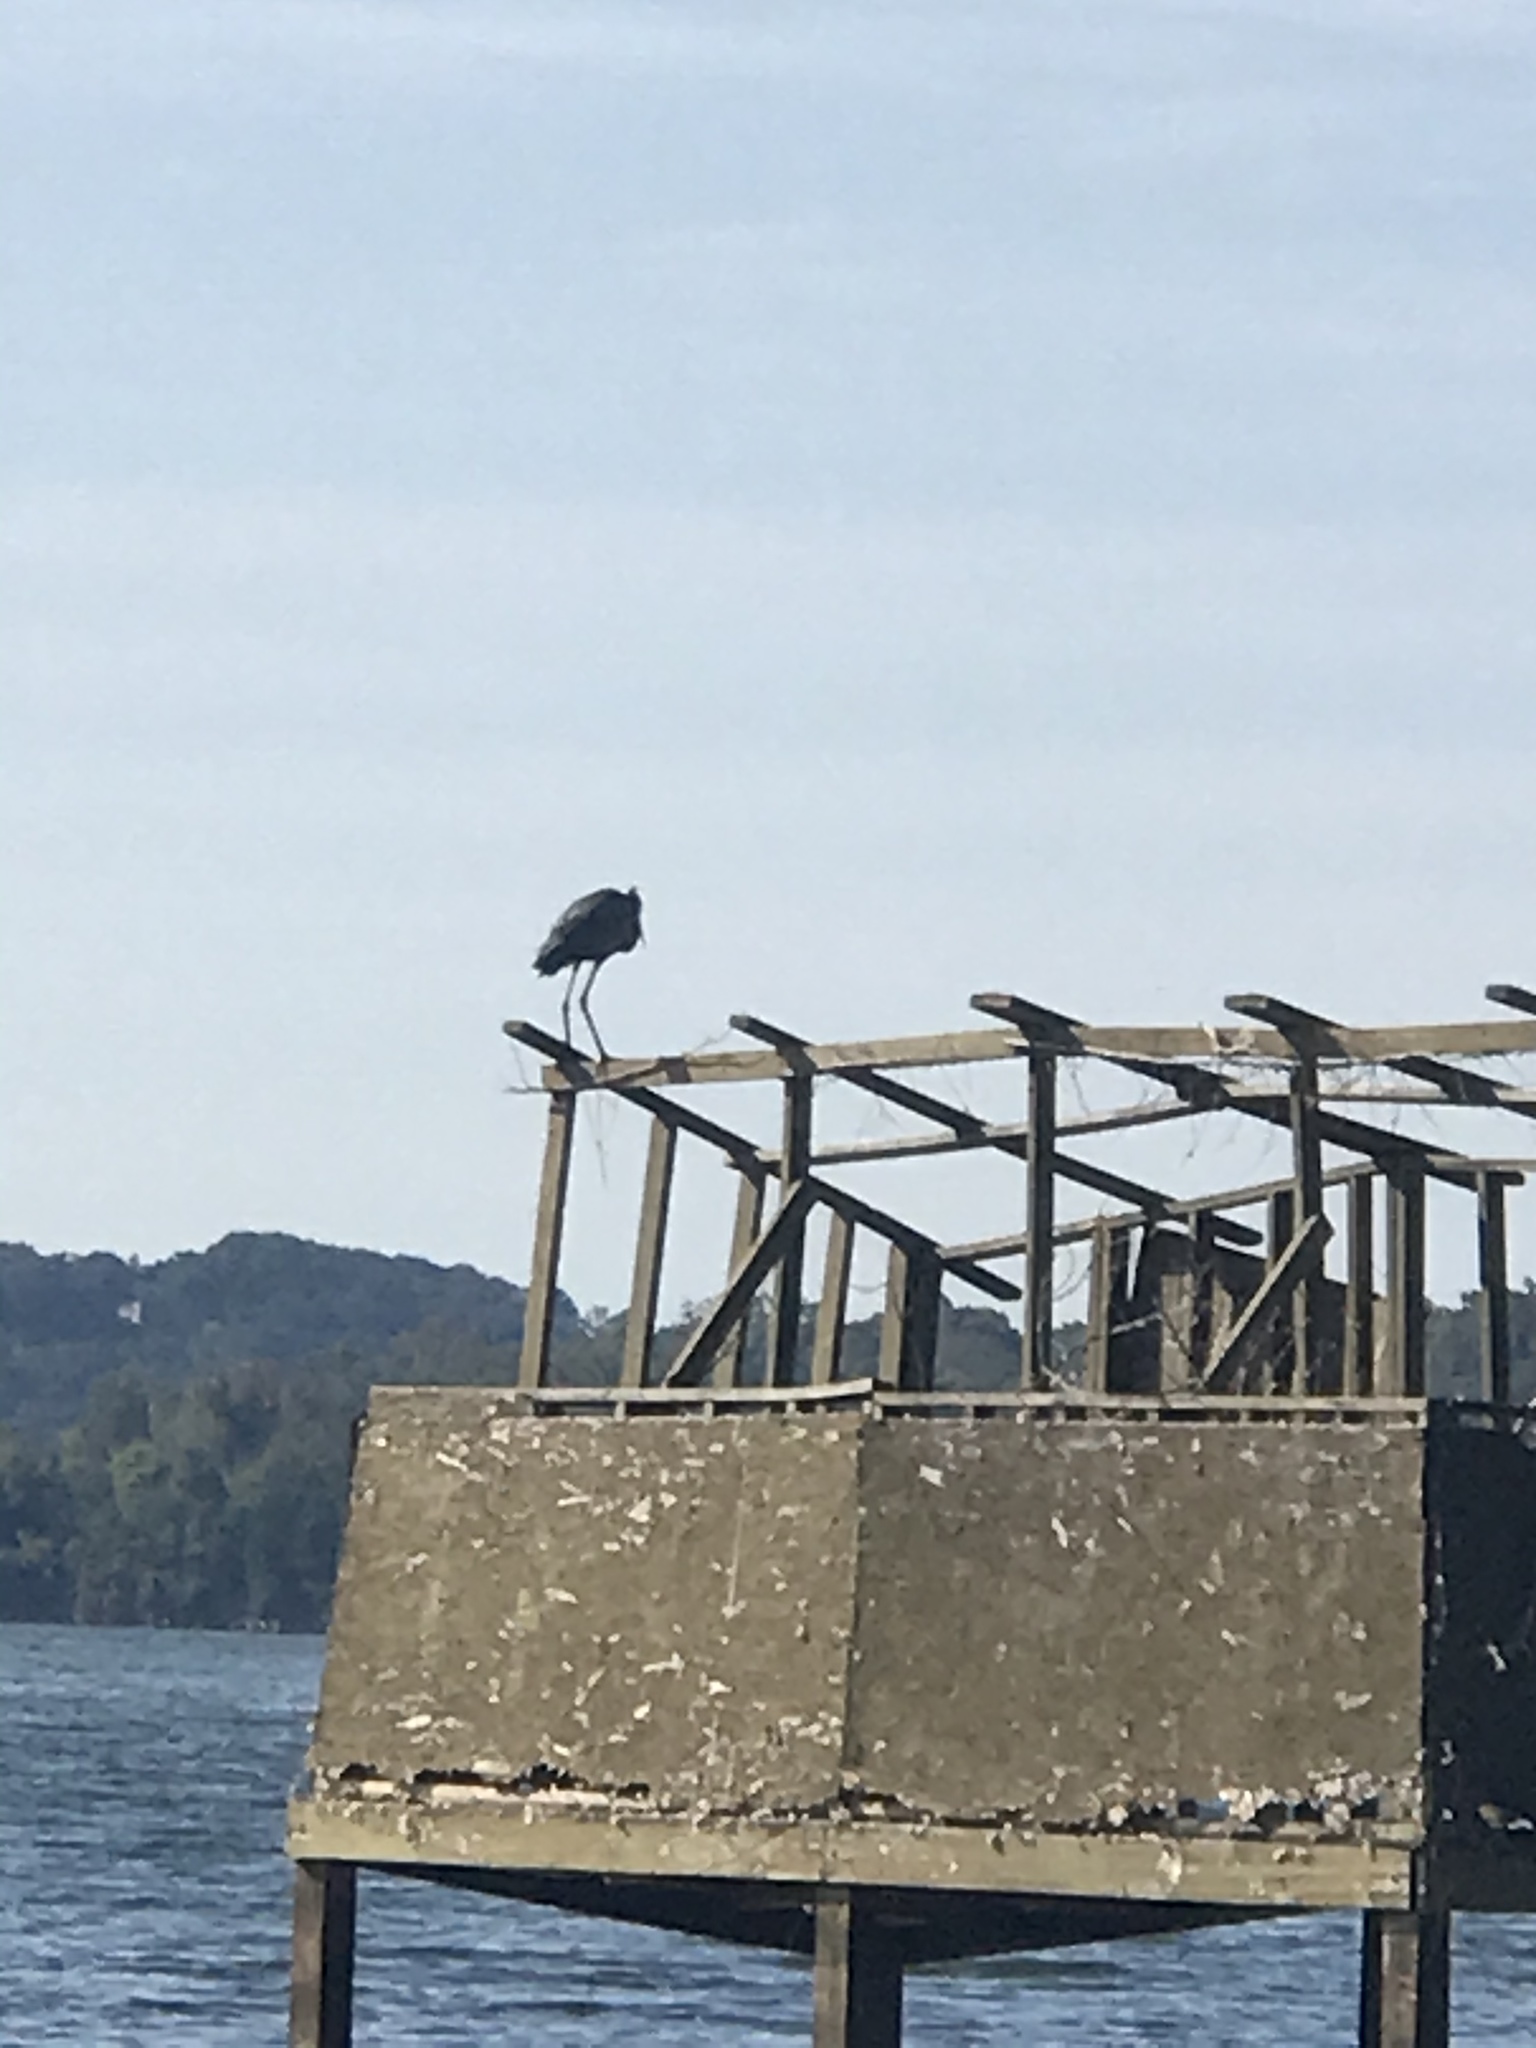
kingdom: Animalia
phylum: Chordata
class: Aves
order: Pelecaniformes
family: Ardeidae
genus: Ardea
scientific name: Ardea herodias
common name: Great blue heron
